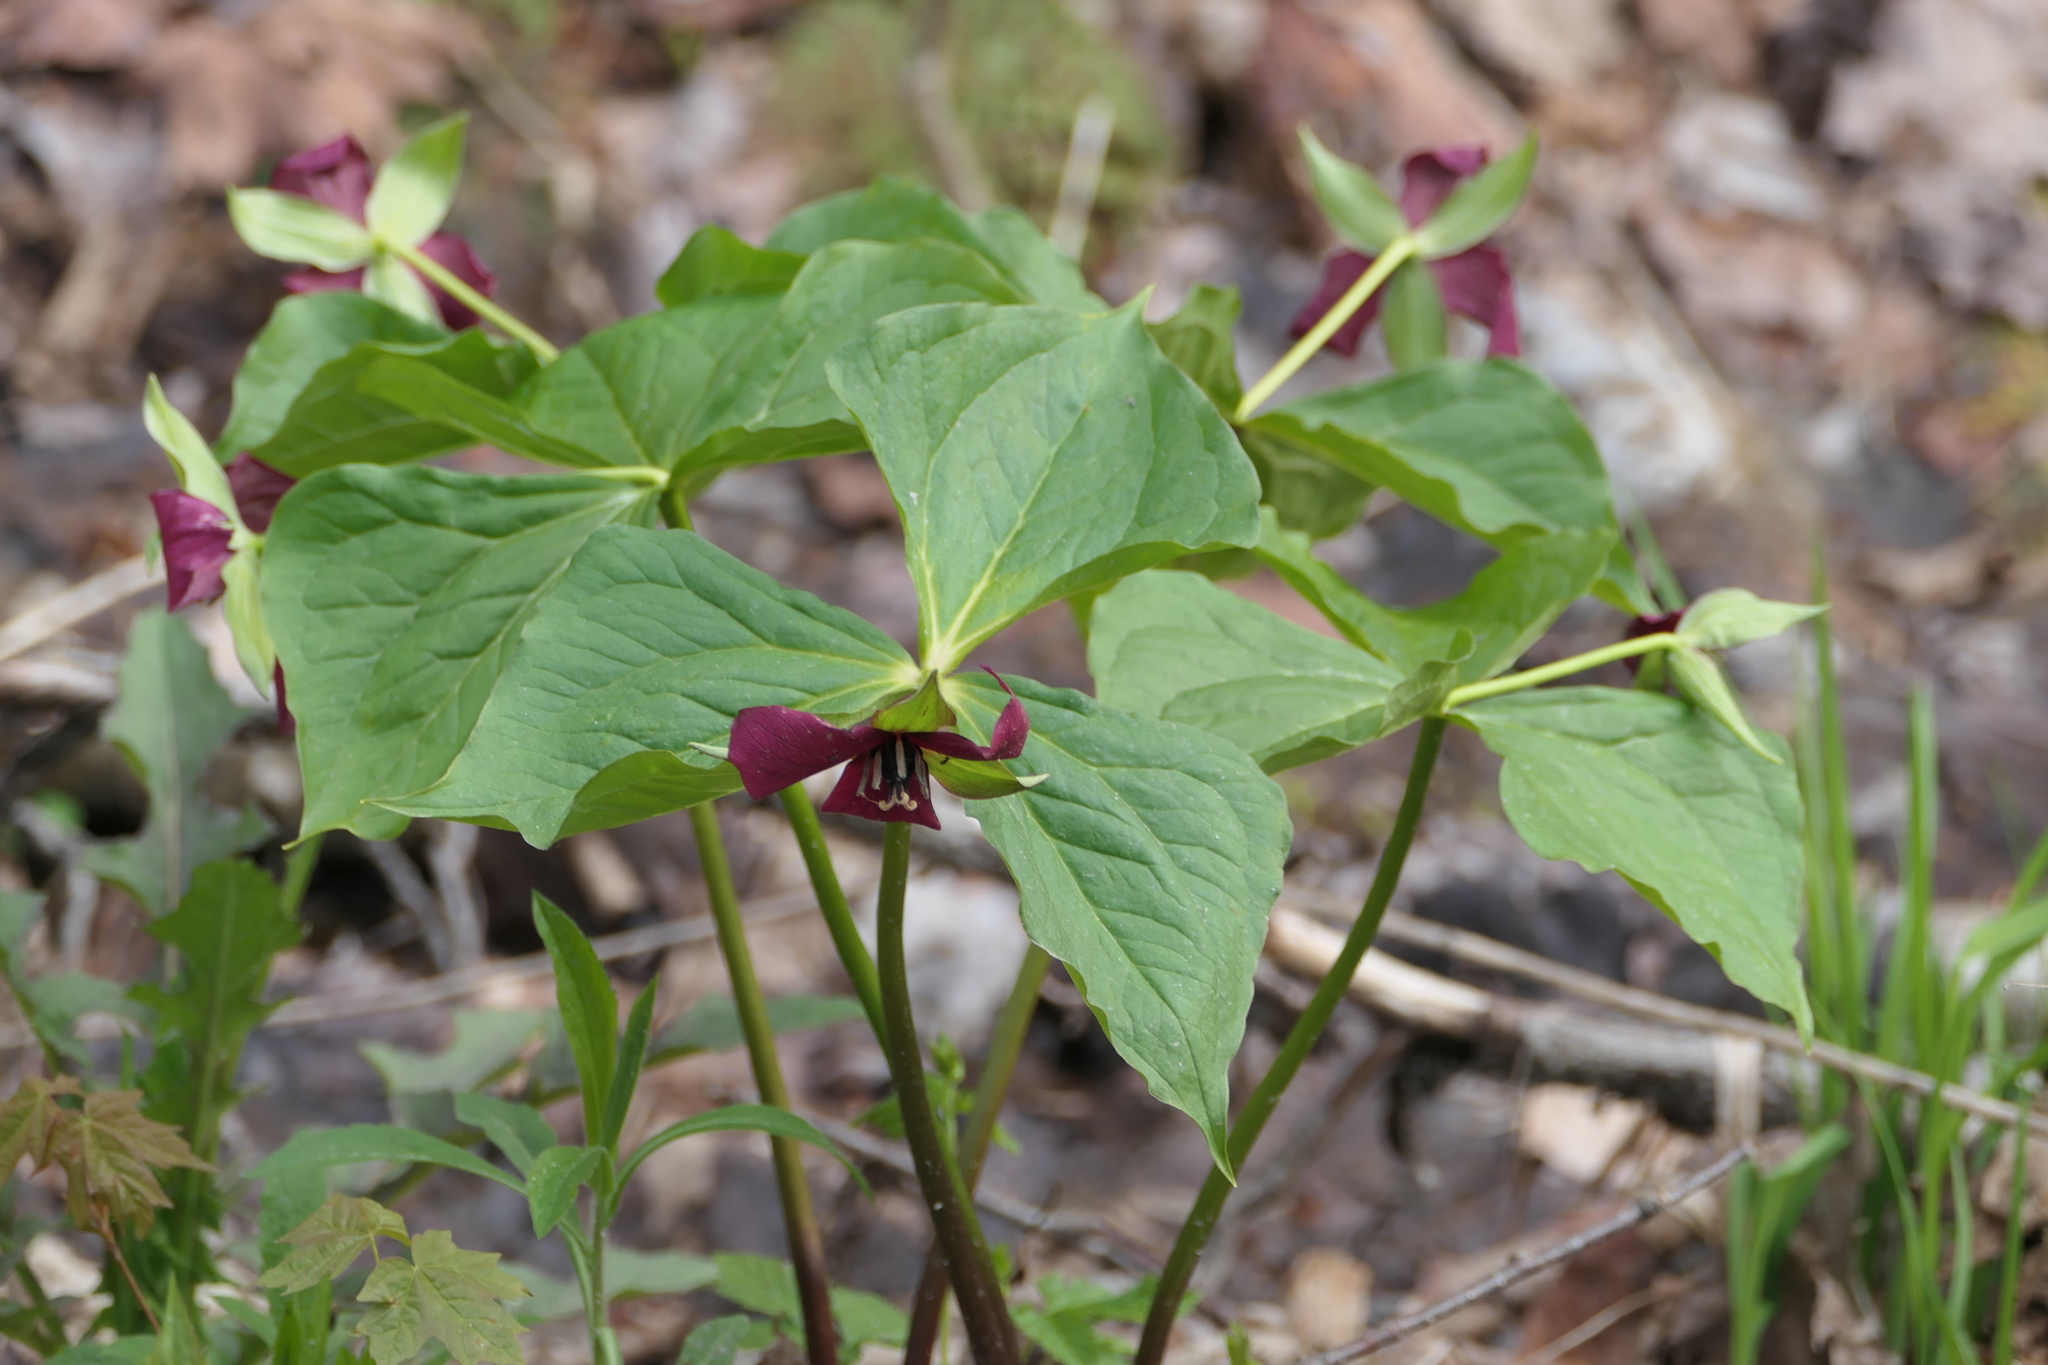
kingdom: Plantae
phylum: Tracheophyta
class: Liliopsida
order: Liliales
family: Melanthiaceae
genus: Trillium
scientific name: Trillium erectum
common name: Purple trillium
